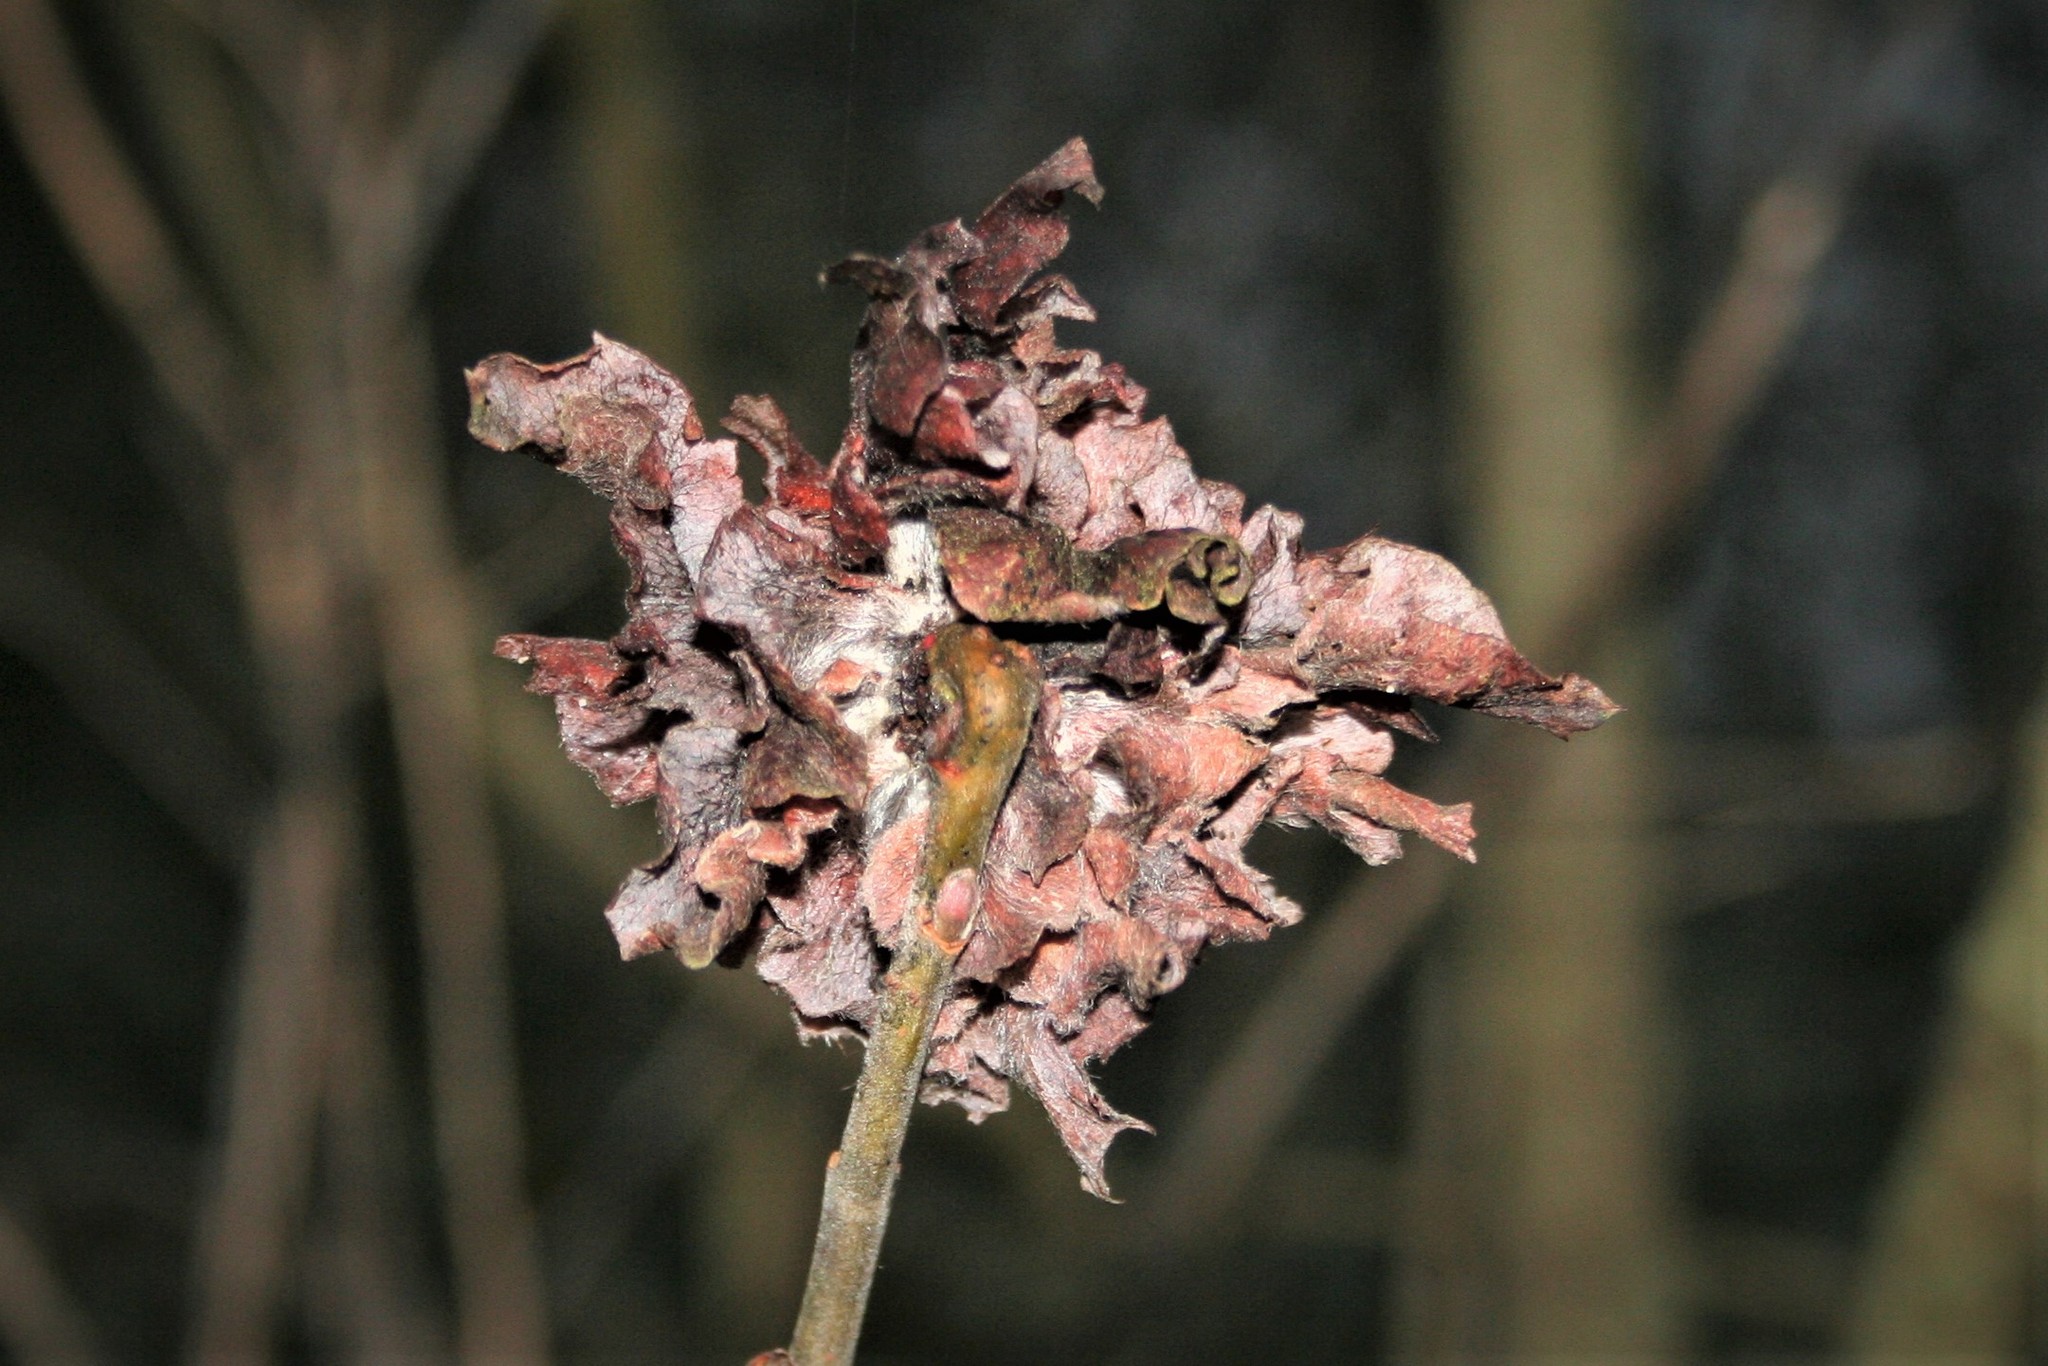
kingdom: Animalia
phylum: Arthropoda
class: Insecta
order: Diptera
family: Cecidomyiidae
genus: Rabdophaga
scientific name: Rabdophaga rosaria
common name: Willow rose gall midge
